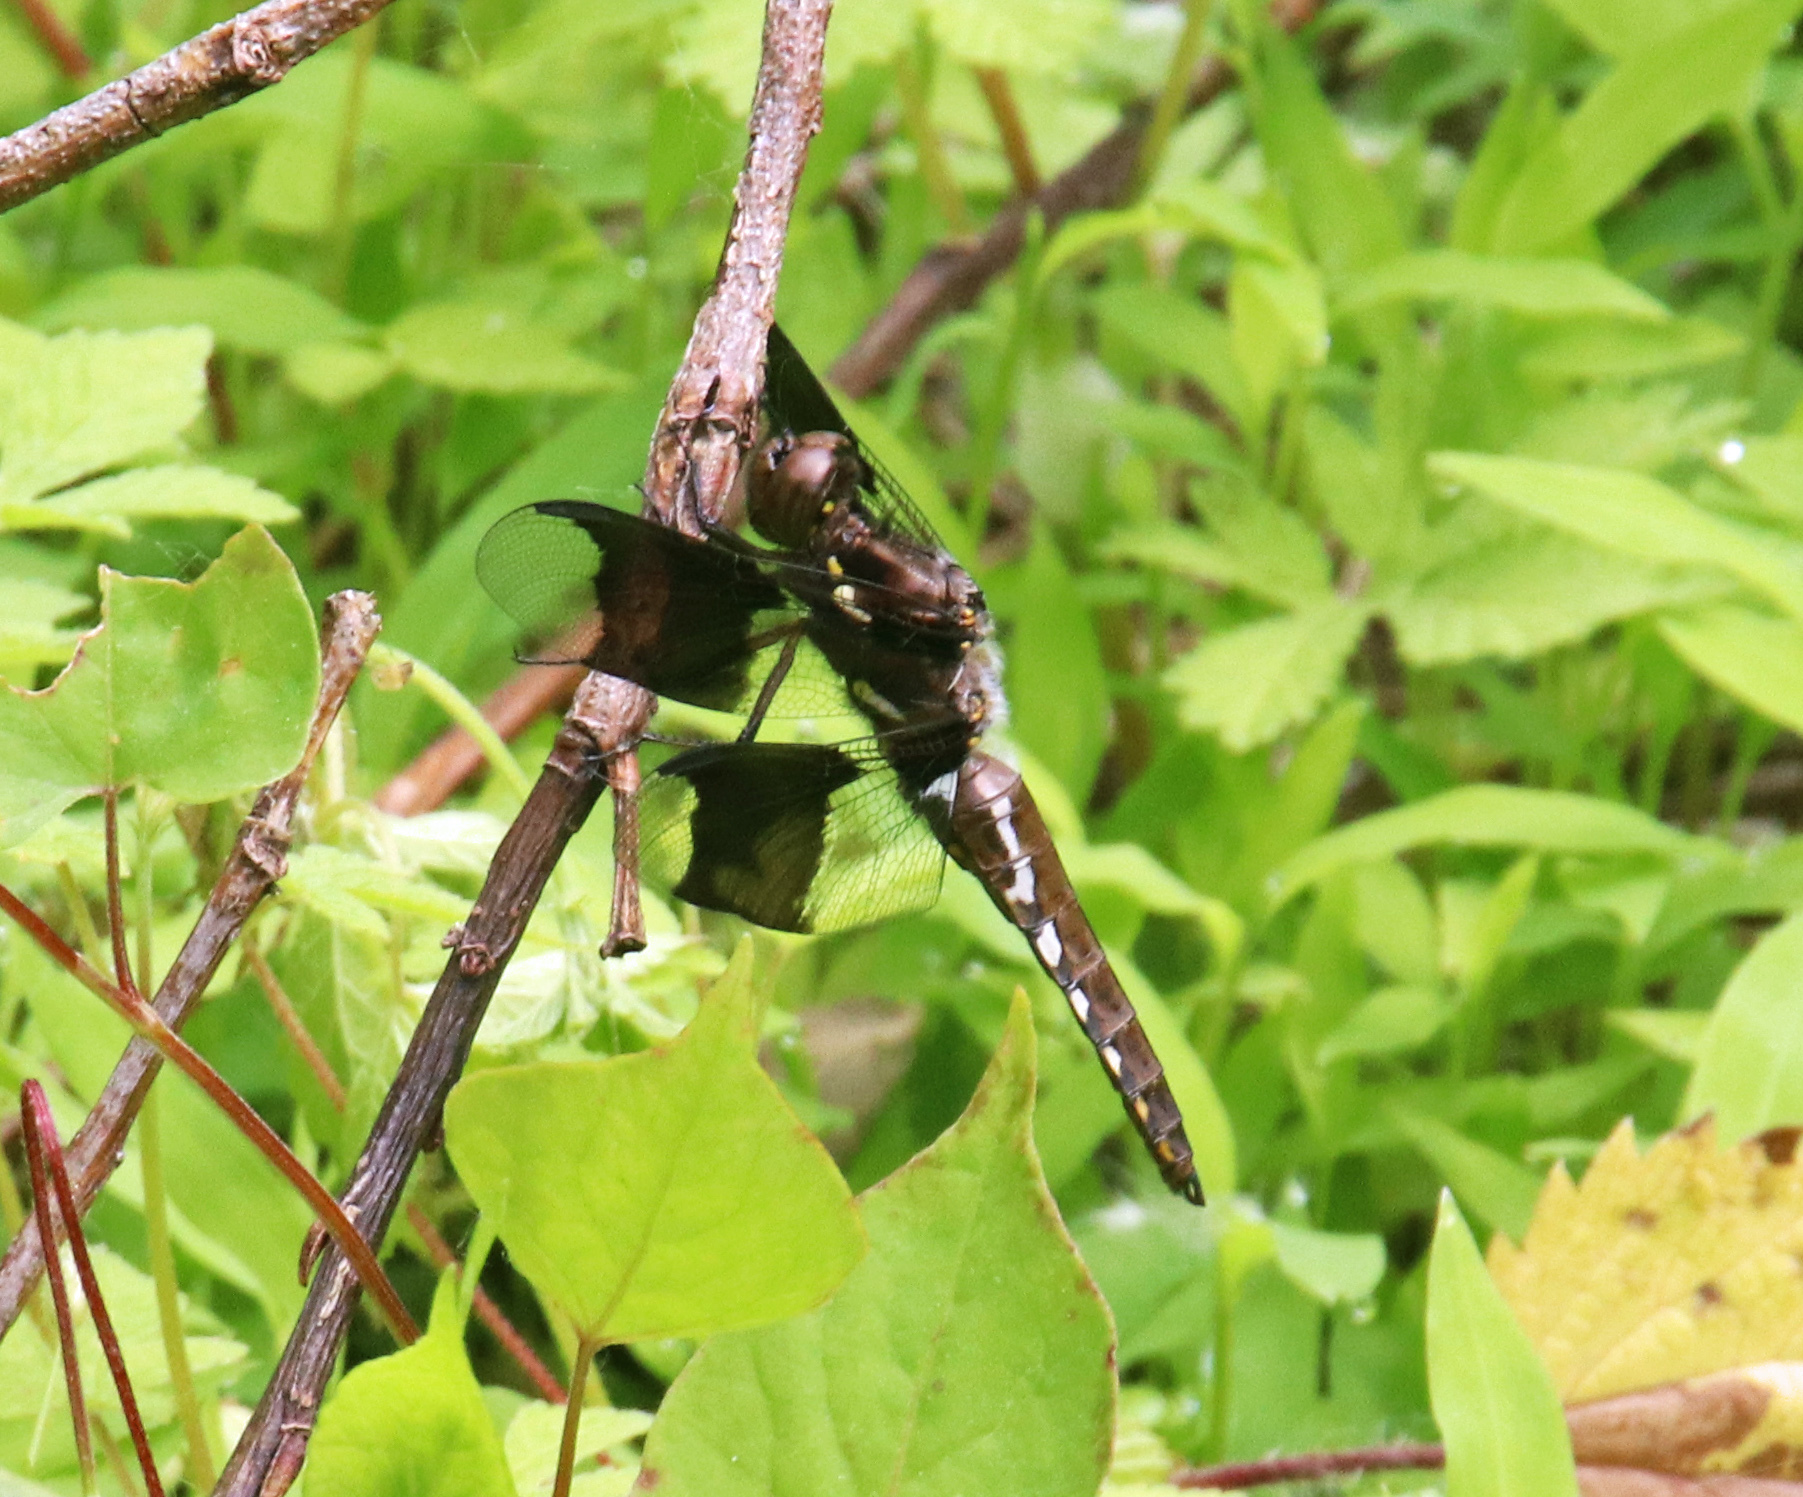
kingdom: Animalia
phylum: Arthropoda
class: Insecta
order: Odonata
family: Libellulidae
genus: Plathemis
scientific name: Plathemis lydia
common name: Common whitetail
